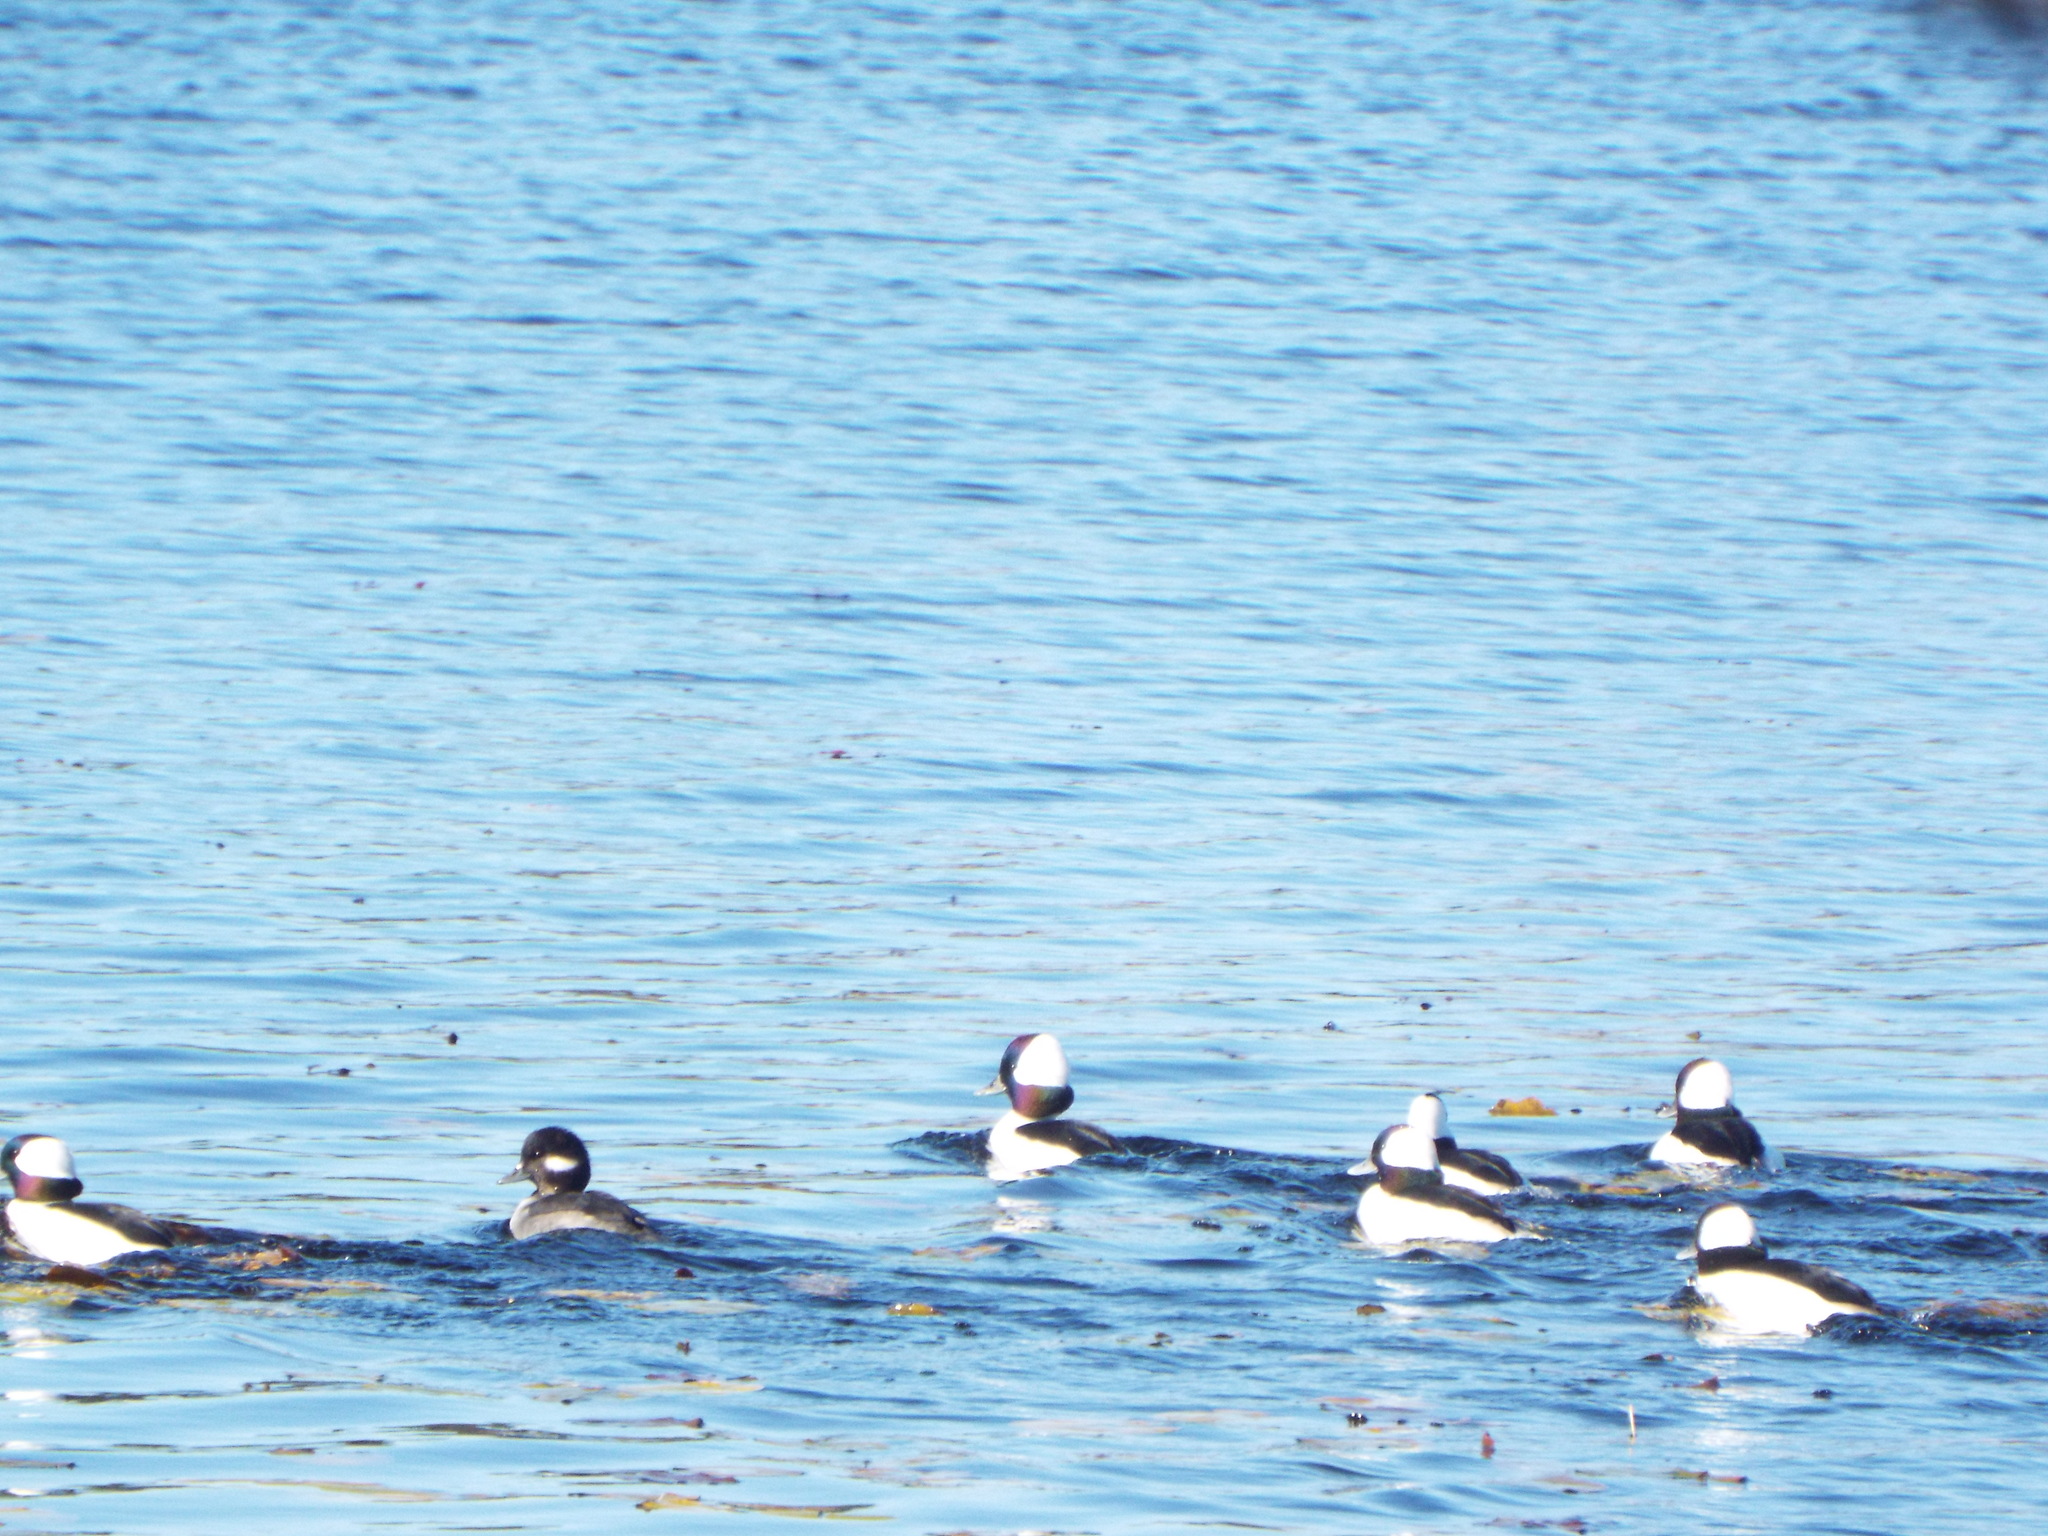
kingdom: Animalia
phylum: Chordata
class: Aves
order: Anseriformes
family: Anatidae
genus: Bucephala
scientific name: Bucephala albeola
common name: Bufflehead
